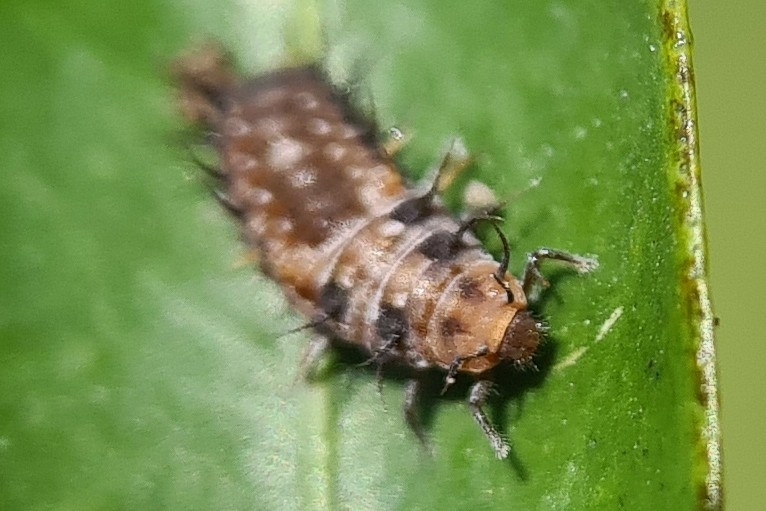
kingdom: Animalia
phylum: Arthropoda
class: Insecta
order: Coleoptera
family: Coccinellidae
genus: Scymnodes
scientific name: Scymnodes lividigaster
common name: Yellowshouldered lady beetle
